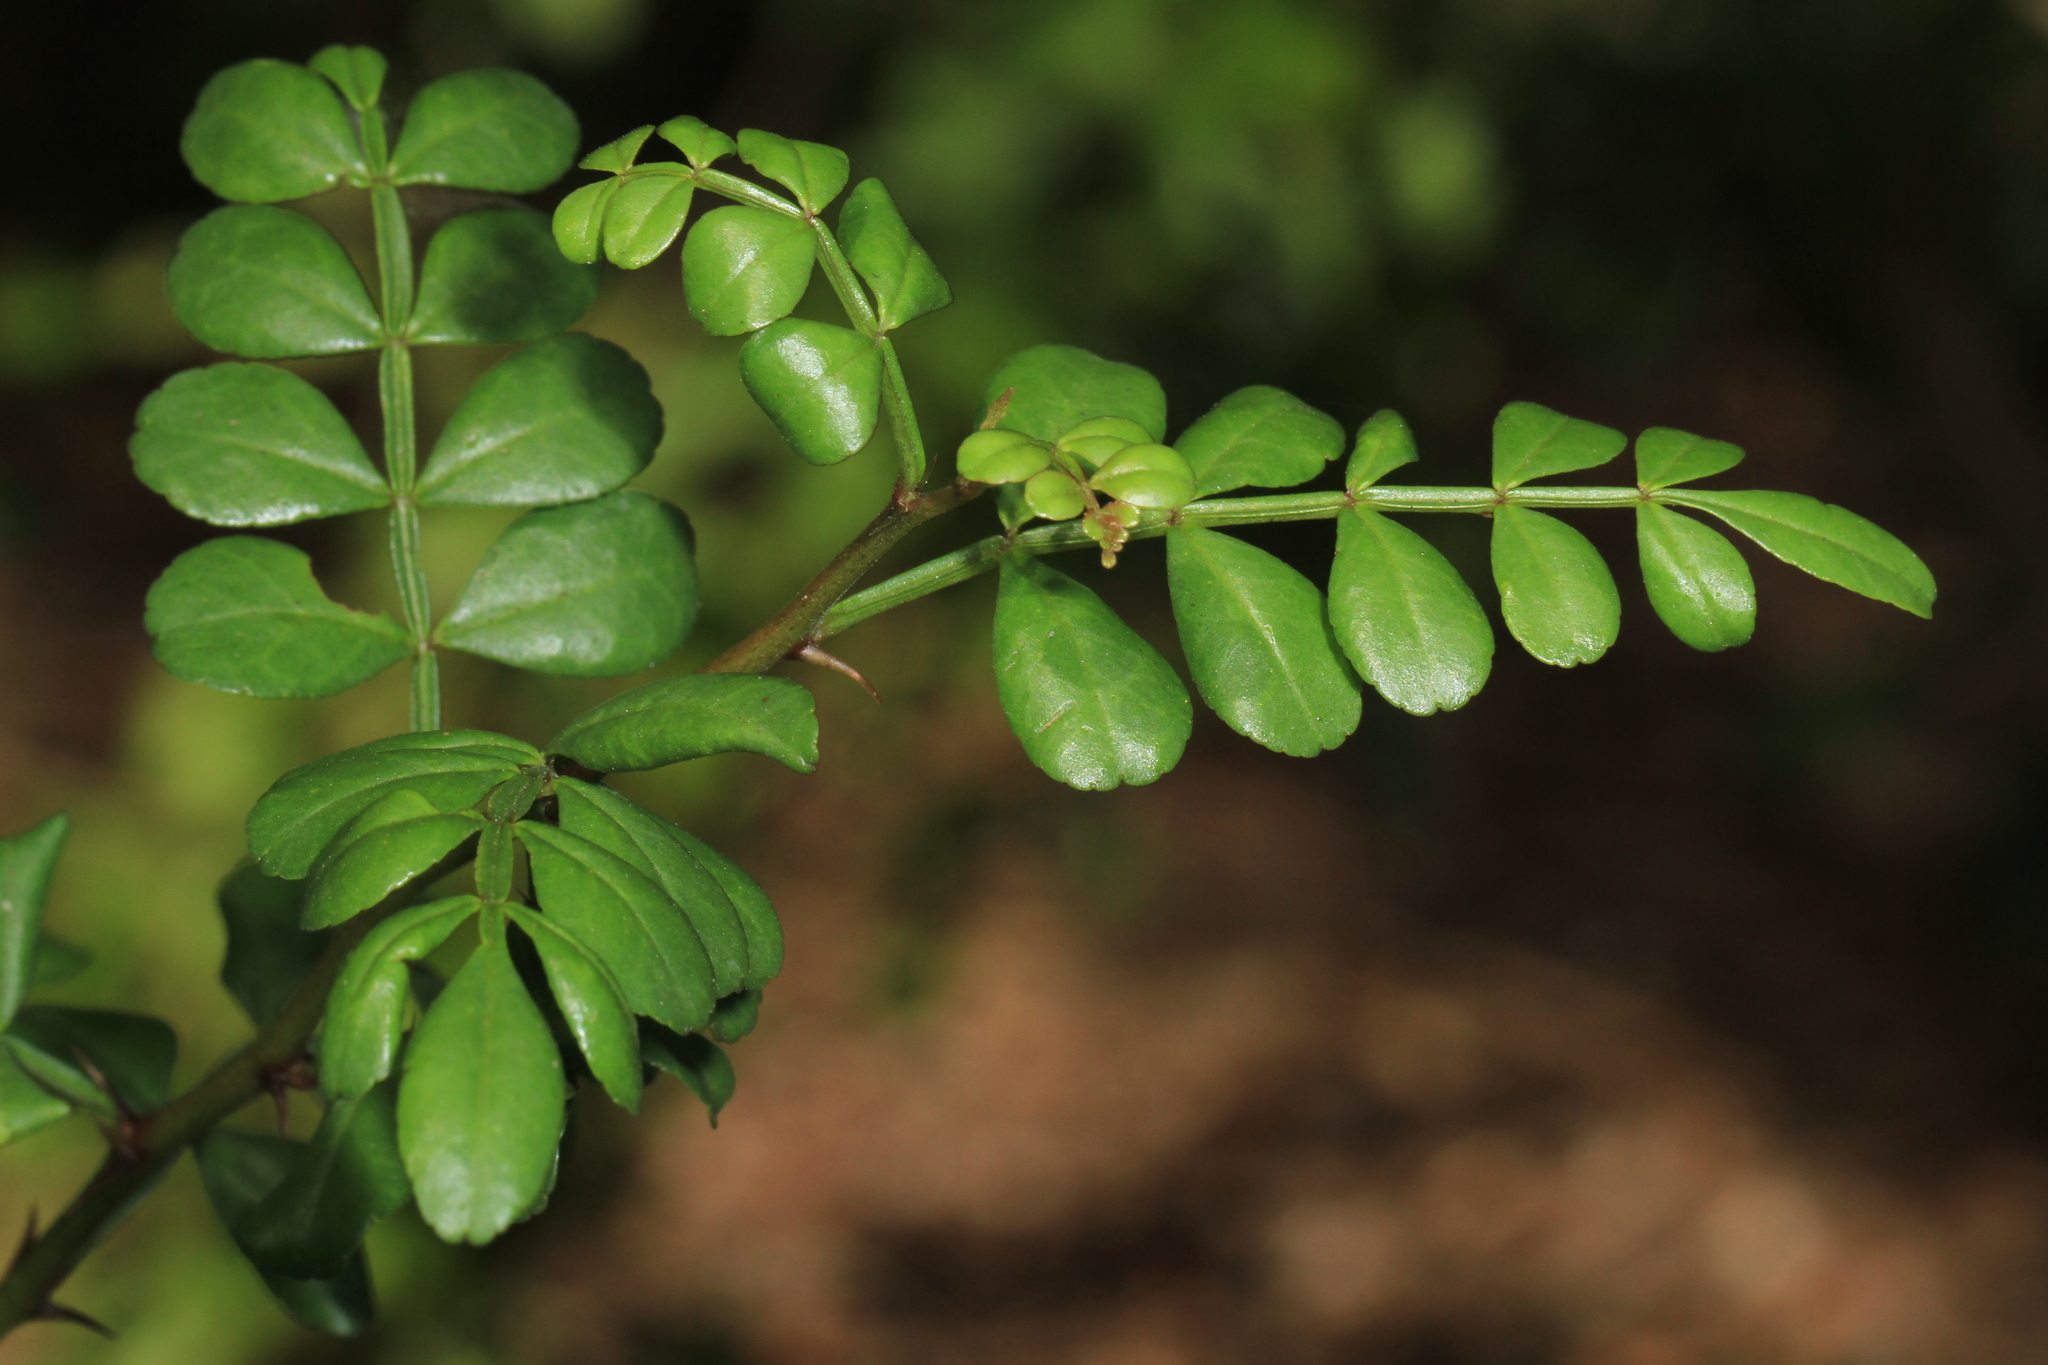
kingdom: Plantae
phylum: Tracheophyta
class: Magnoliopsida
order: Sapindales
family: Rutaceae
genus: Zanthoxylum
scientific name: Zanthoxylum fagara
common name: Lime prickly-ash
